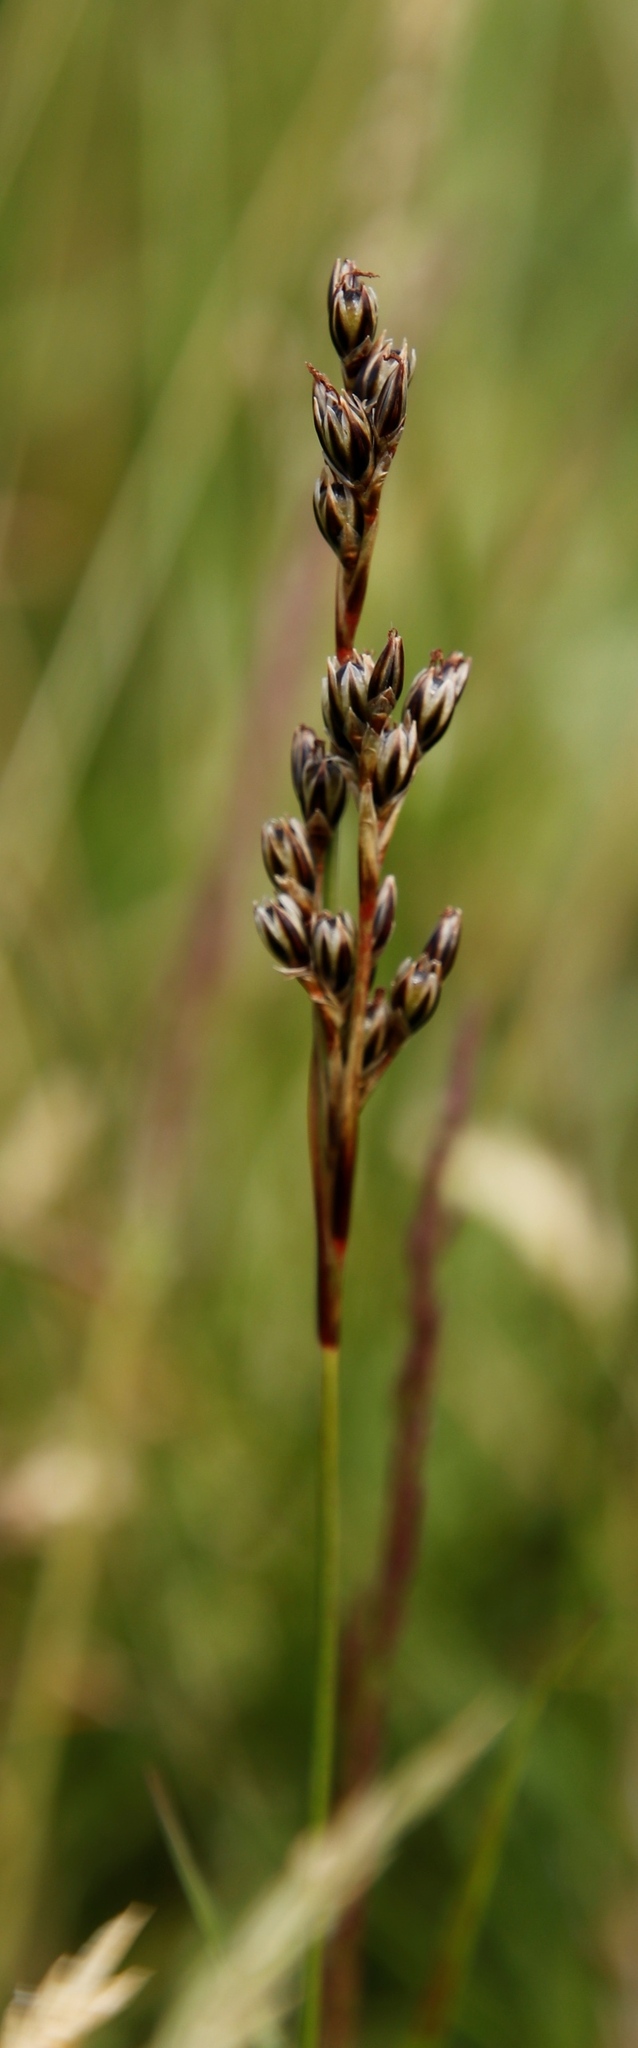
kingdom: Plantae
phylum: Tracheophyta
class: Liliopsida
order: Poales
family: Juncaceae
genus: Juncus
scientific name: Juncus squarrosus
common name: Heath rush
